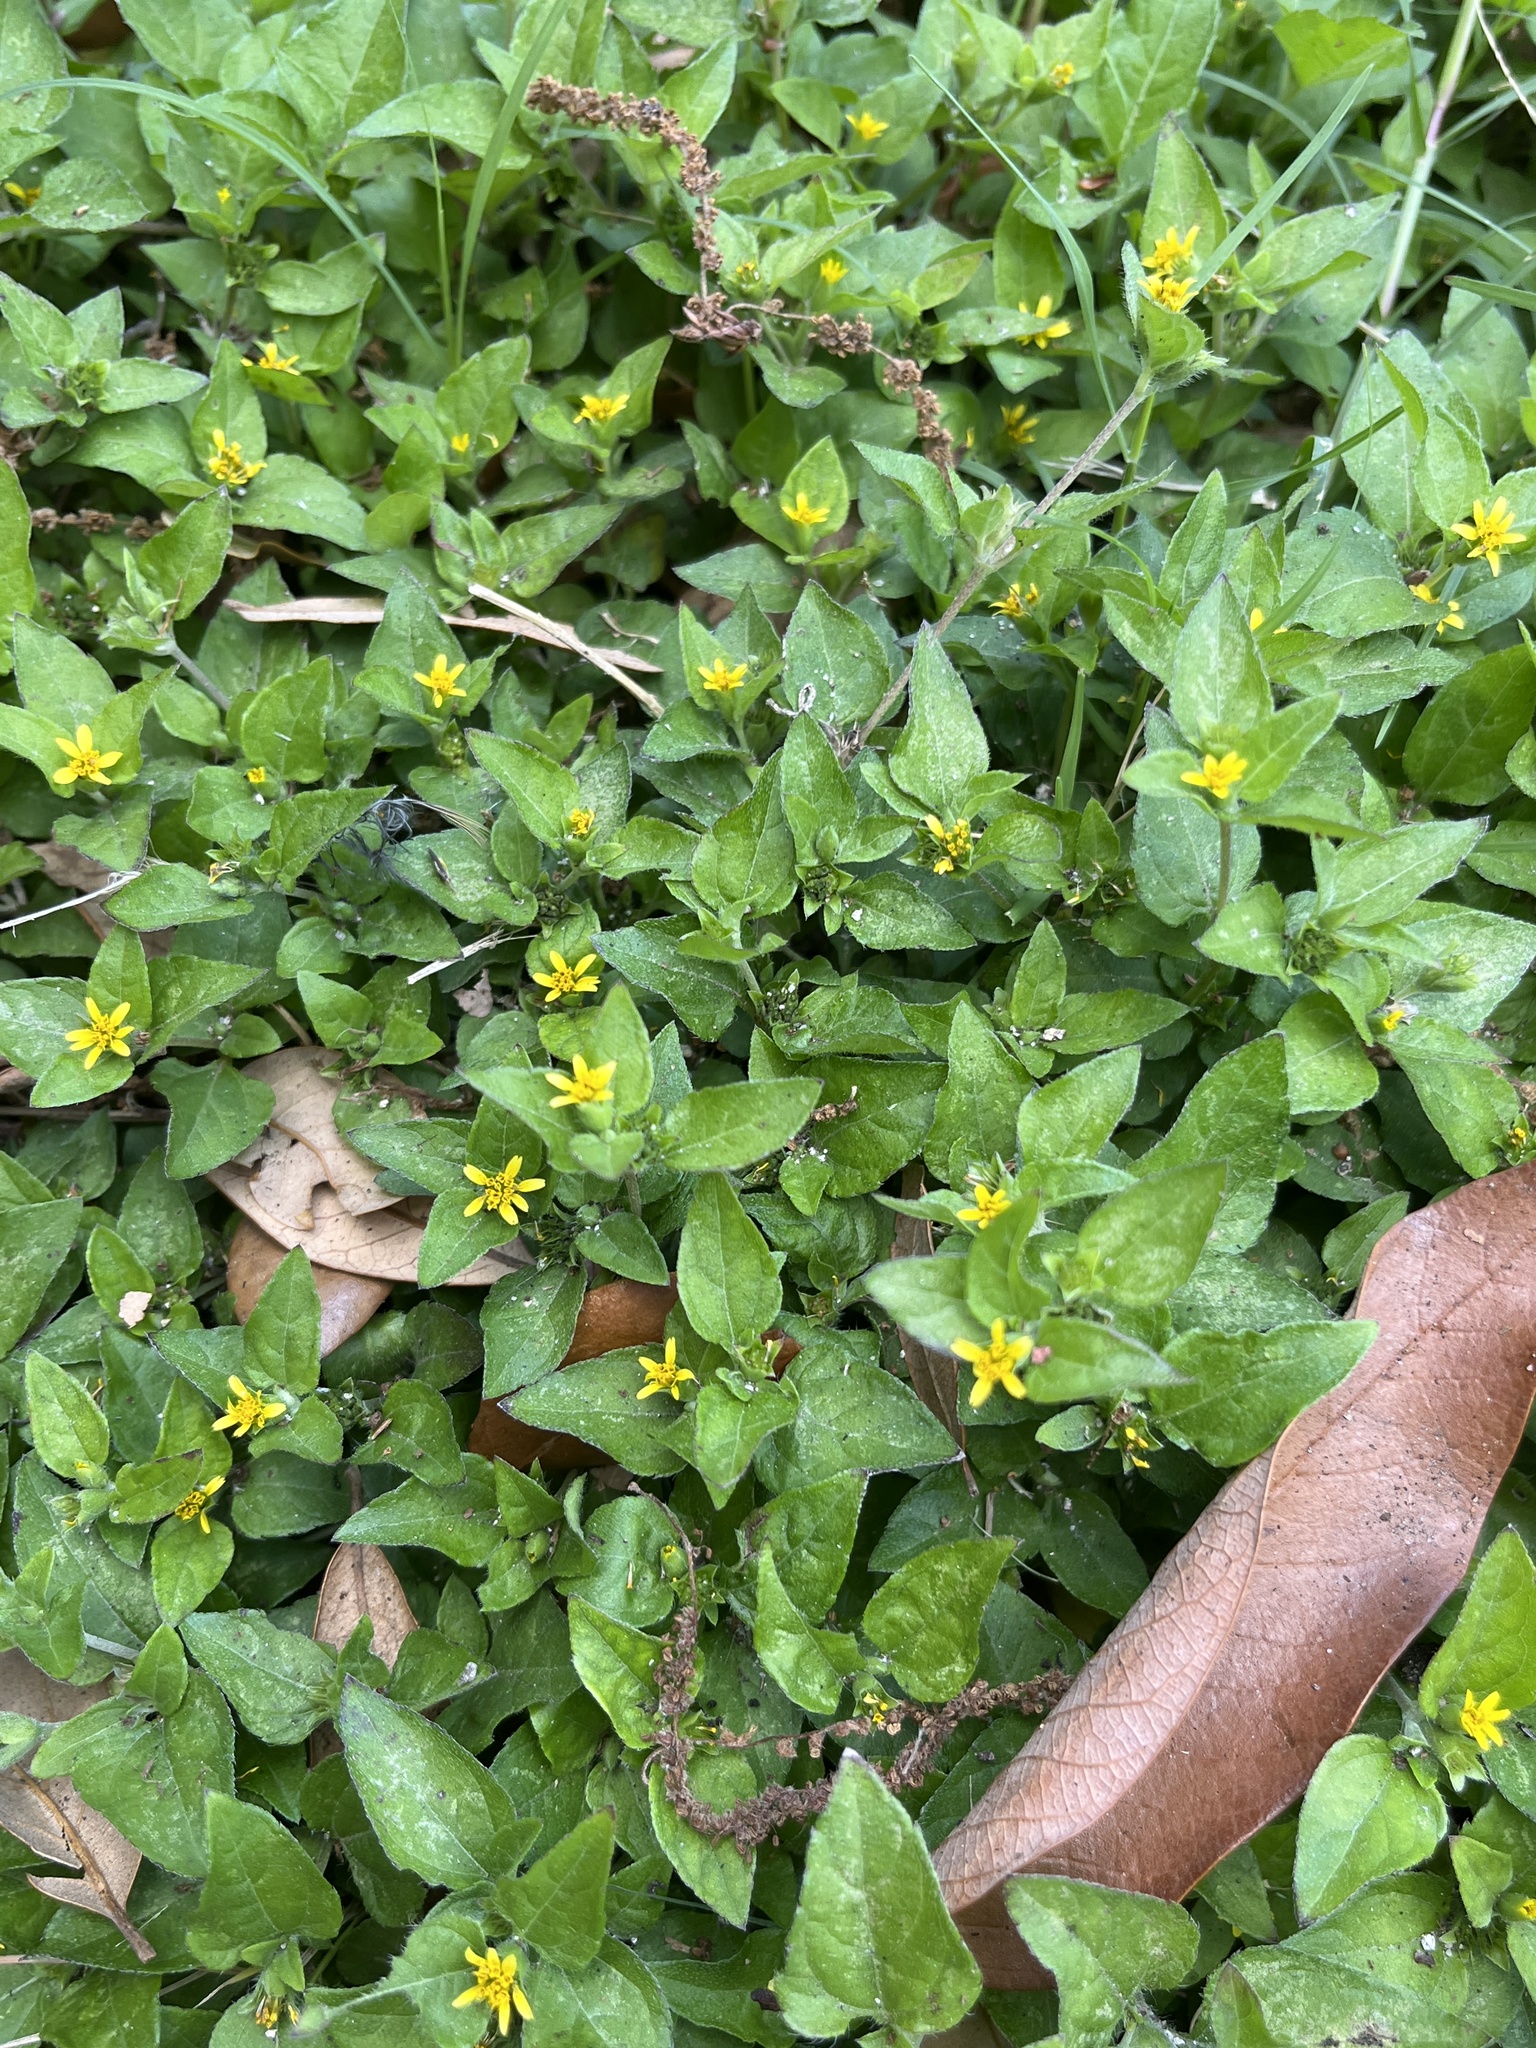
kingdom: Plantae
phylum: Tracheophyta
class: Magnoliopsida
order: Asterales
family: Asteraceae
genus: Calyptocarpus
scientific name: Calyptocarpus vialis
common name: Straggler daisy
